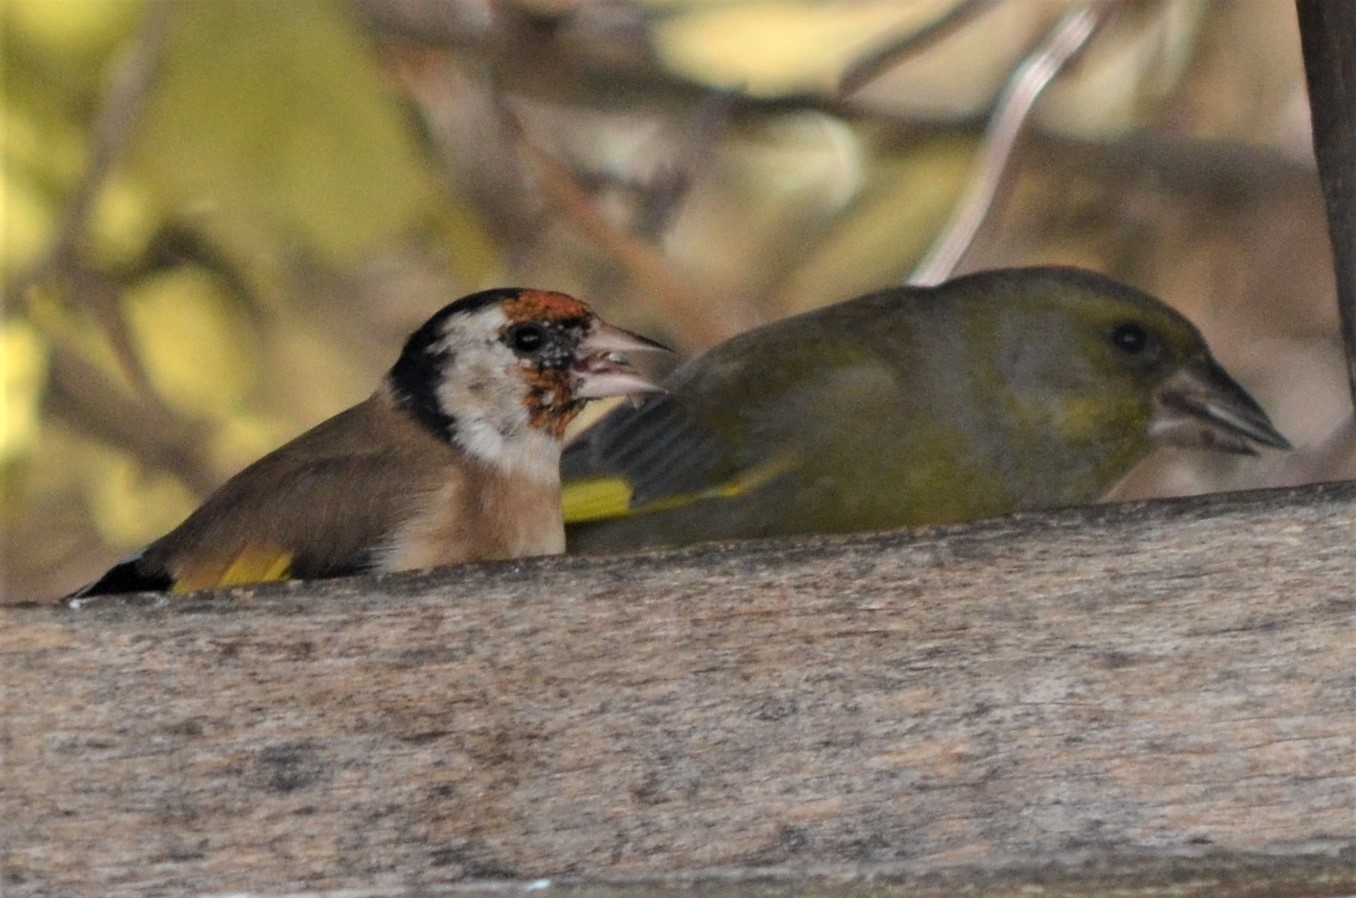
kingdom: Animalia
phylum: Chordata
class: Aves
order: Passeriformes
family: Fringillidae
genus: Carduelis
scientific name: Carduelis carduelis
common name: European goldfinch
